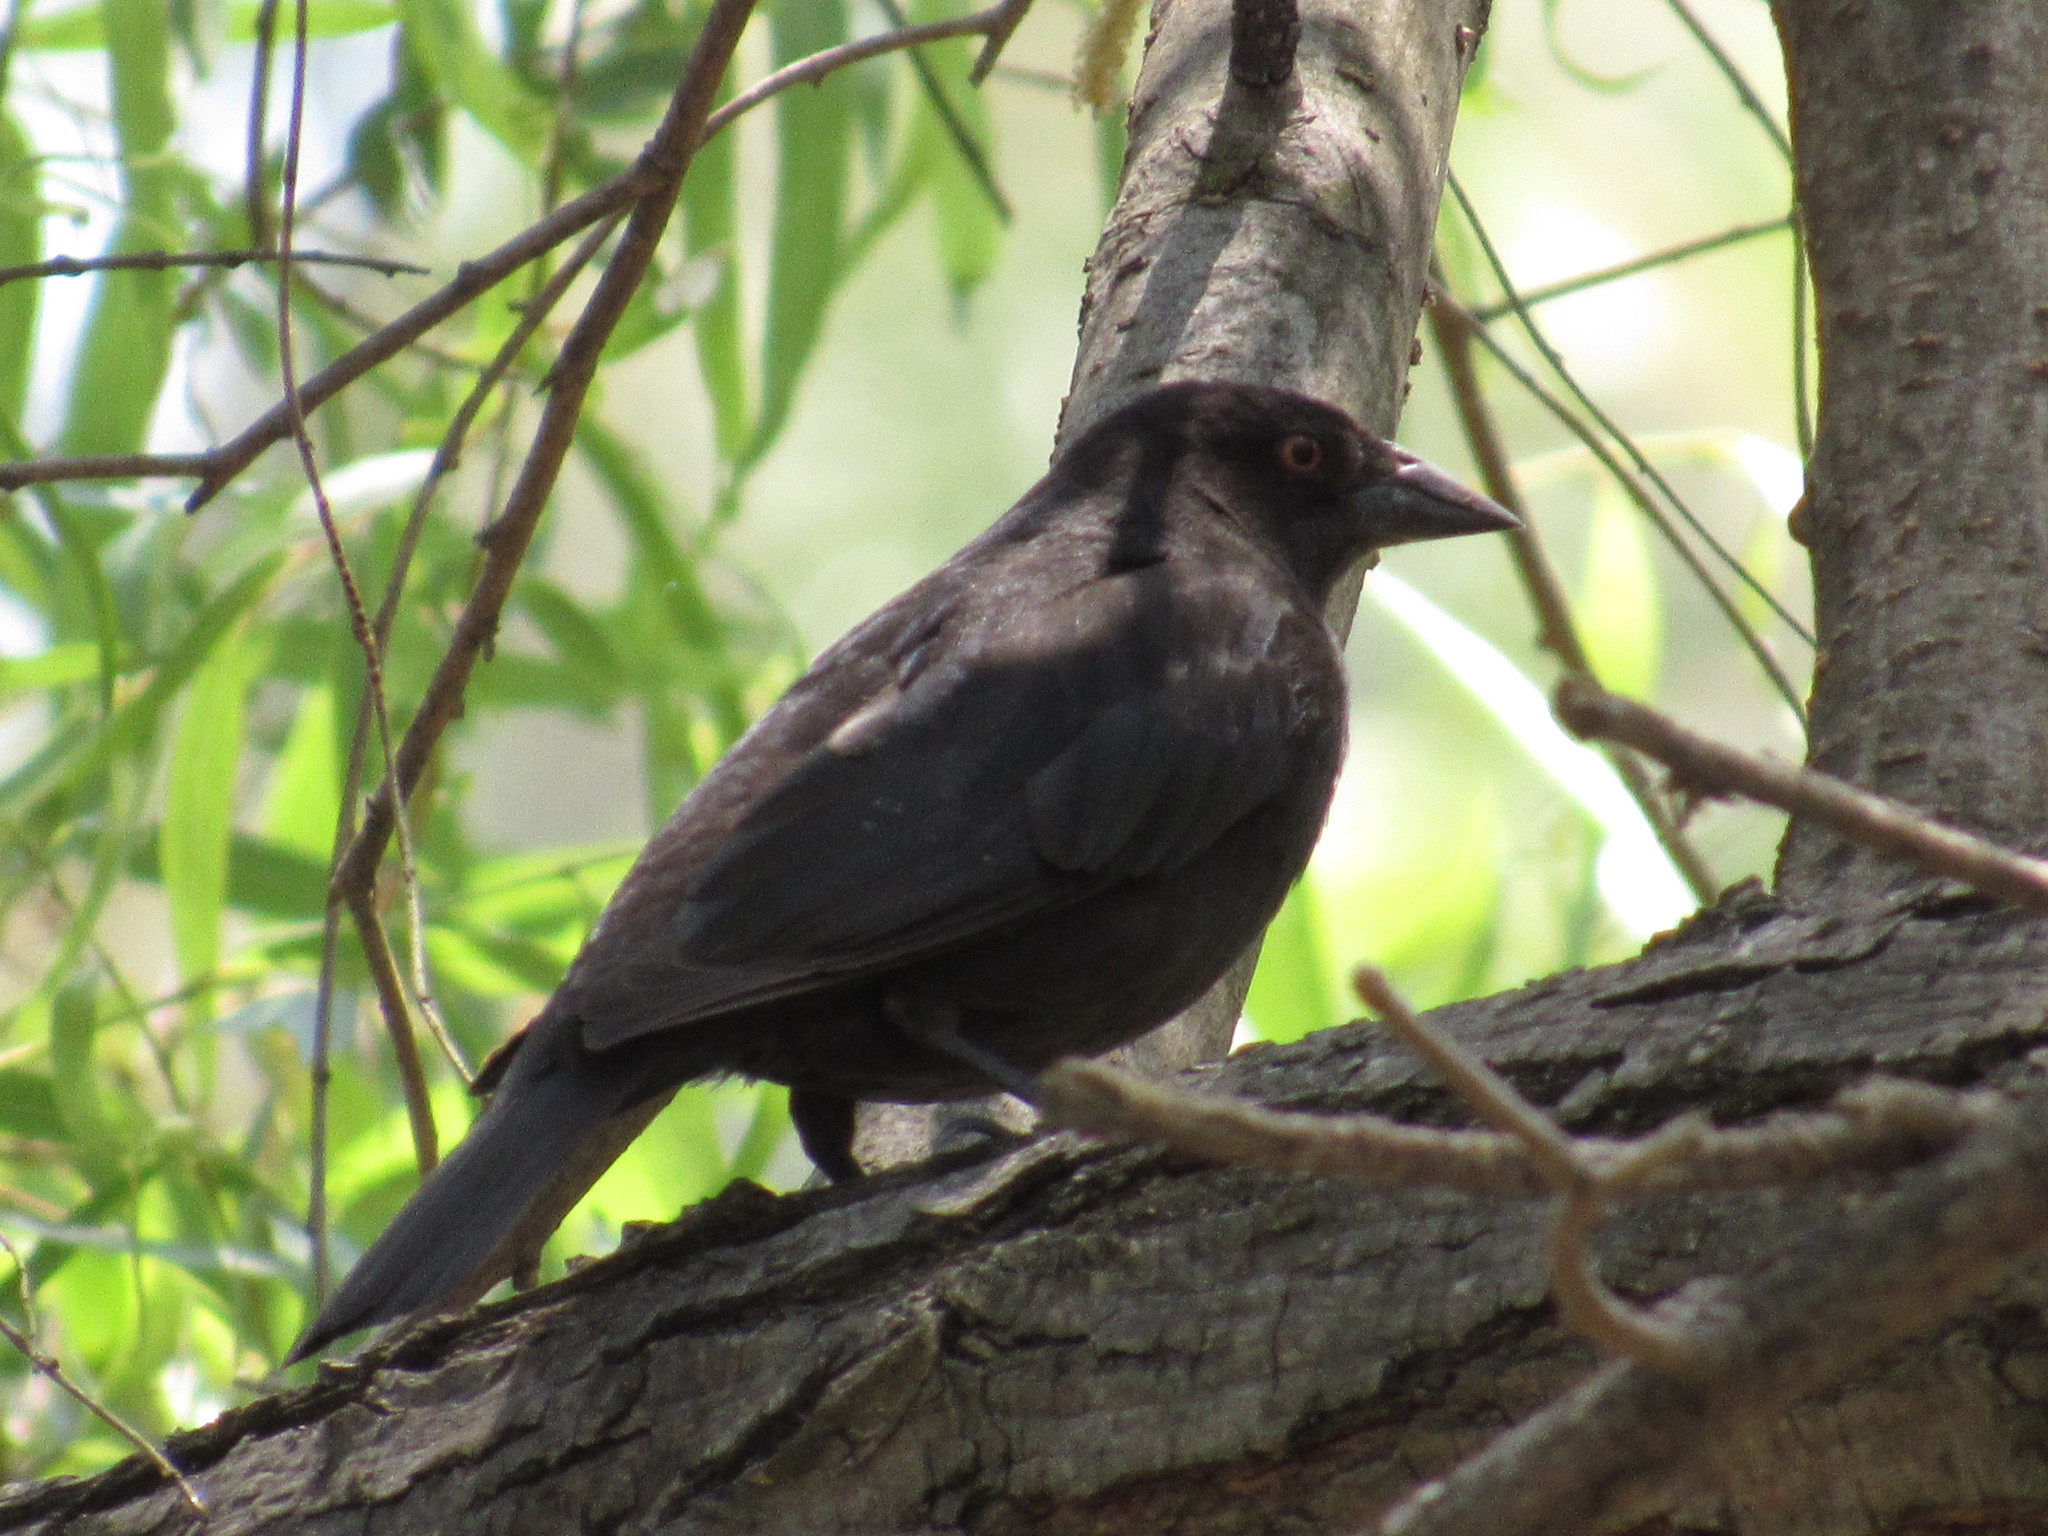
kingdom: Animalia
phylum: Chordata
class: Aves
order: Passeriformes
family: Icteridae
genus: Molothrus
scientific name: Molothrus aeneus
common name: Bronzed cowbird
